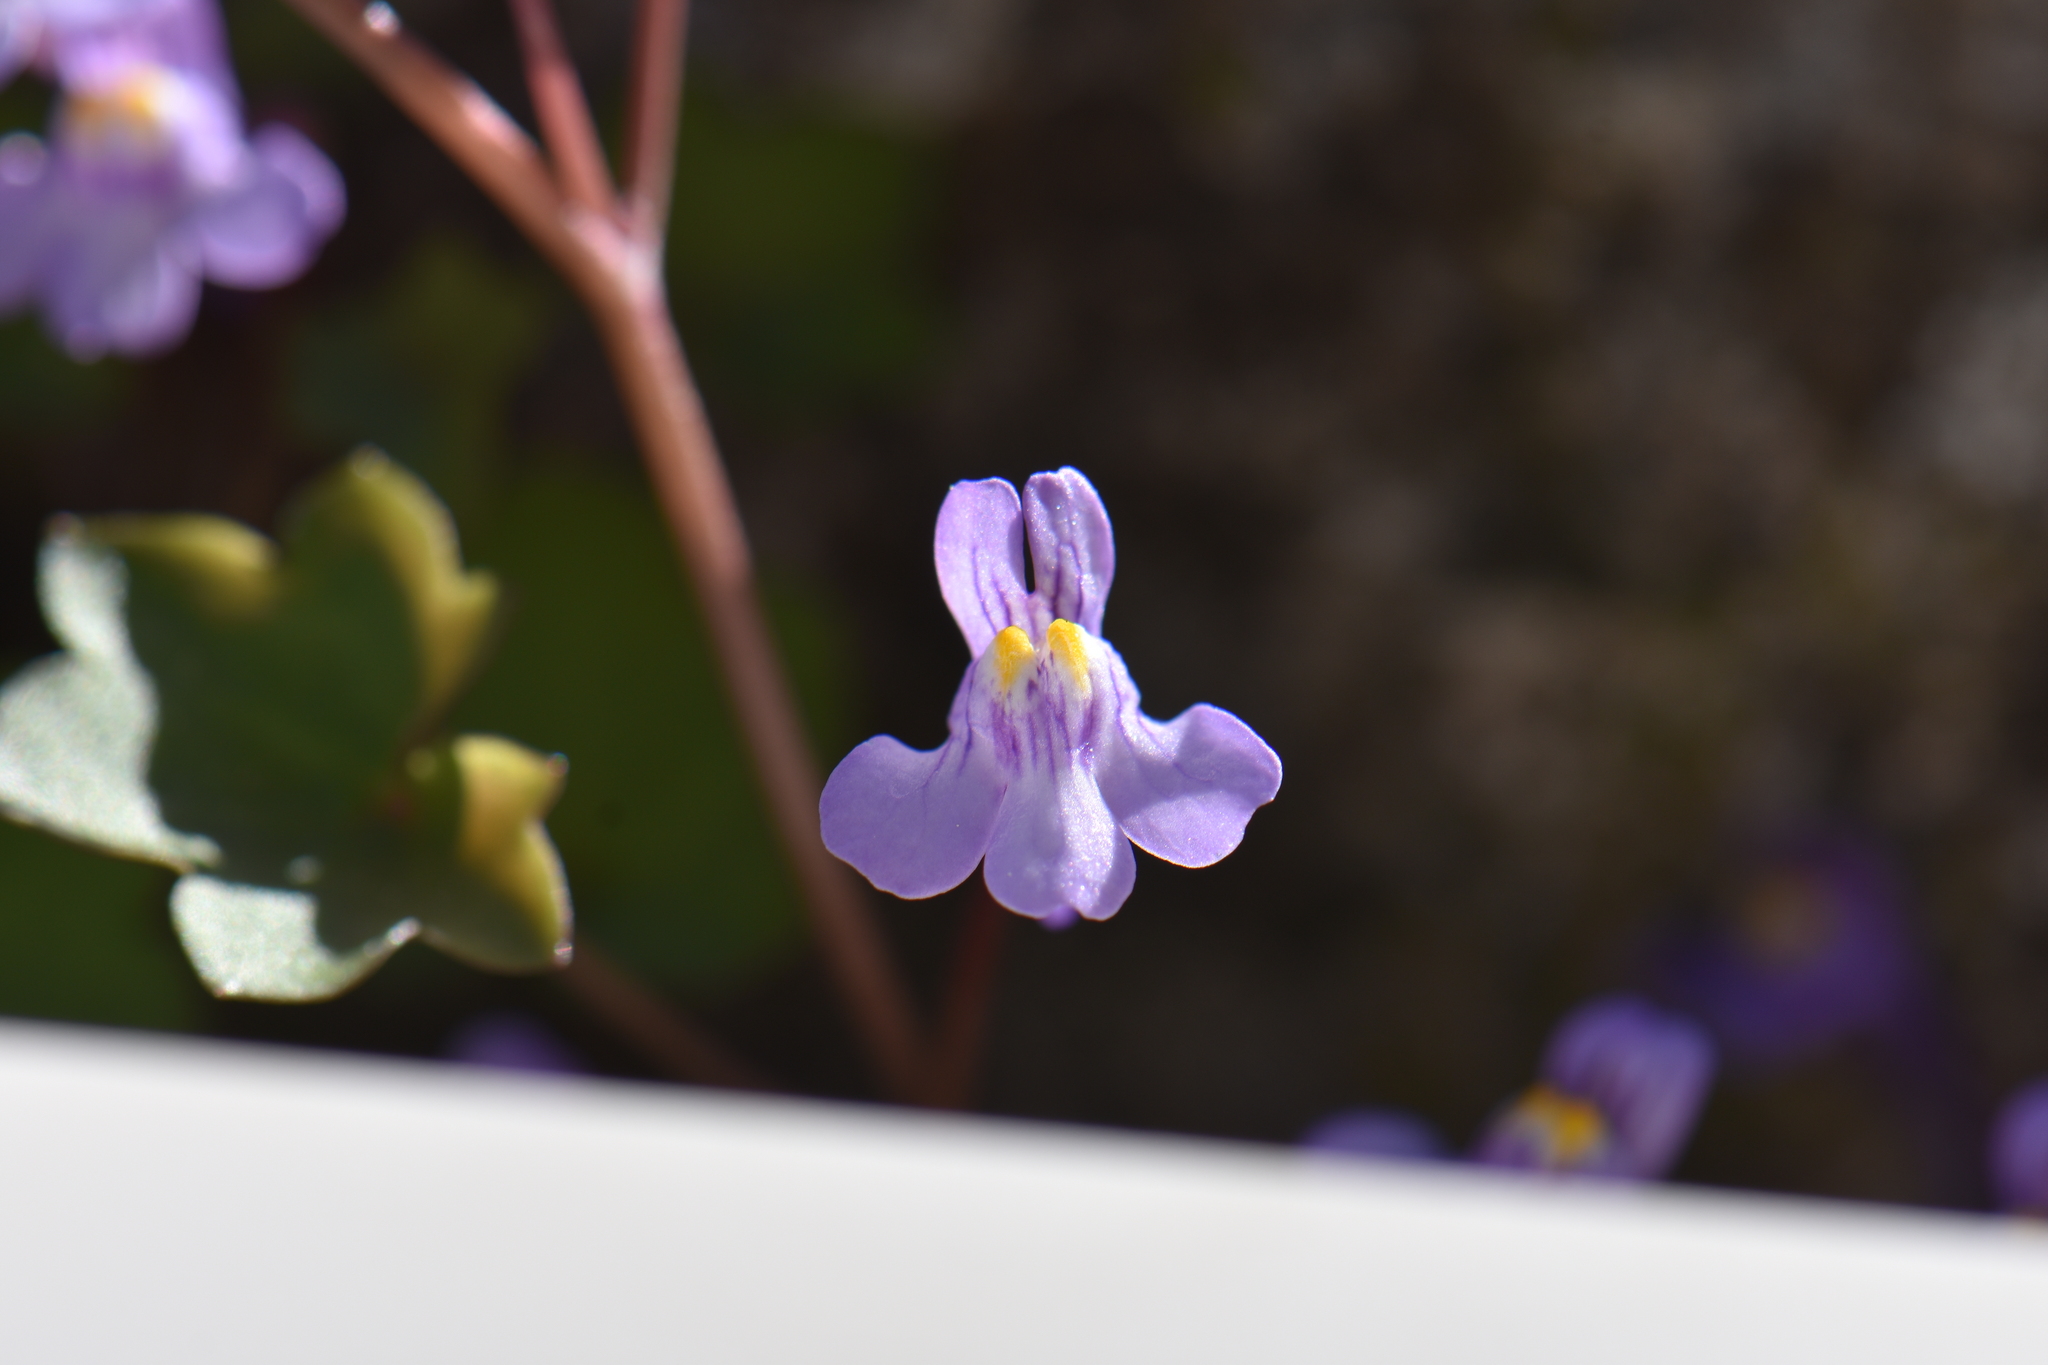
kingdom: Plantae
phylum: Tracheophyta
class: Magnoliopsida
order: Lamiales
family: Plantaginaceae
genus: Cymbalaria
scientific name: Cymbalaria muralis
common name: Ivy-leaved toadflax
